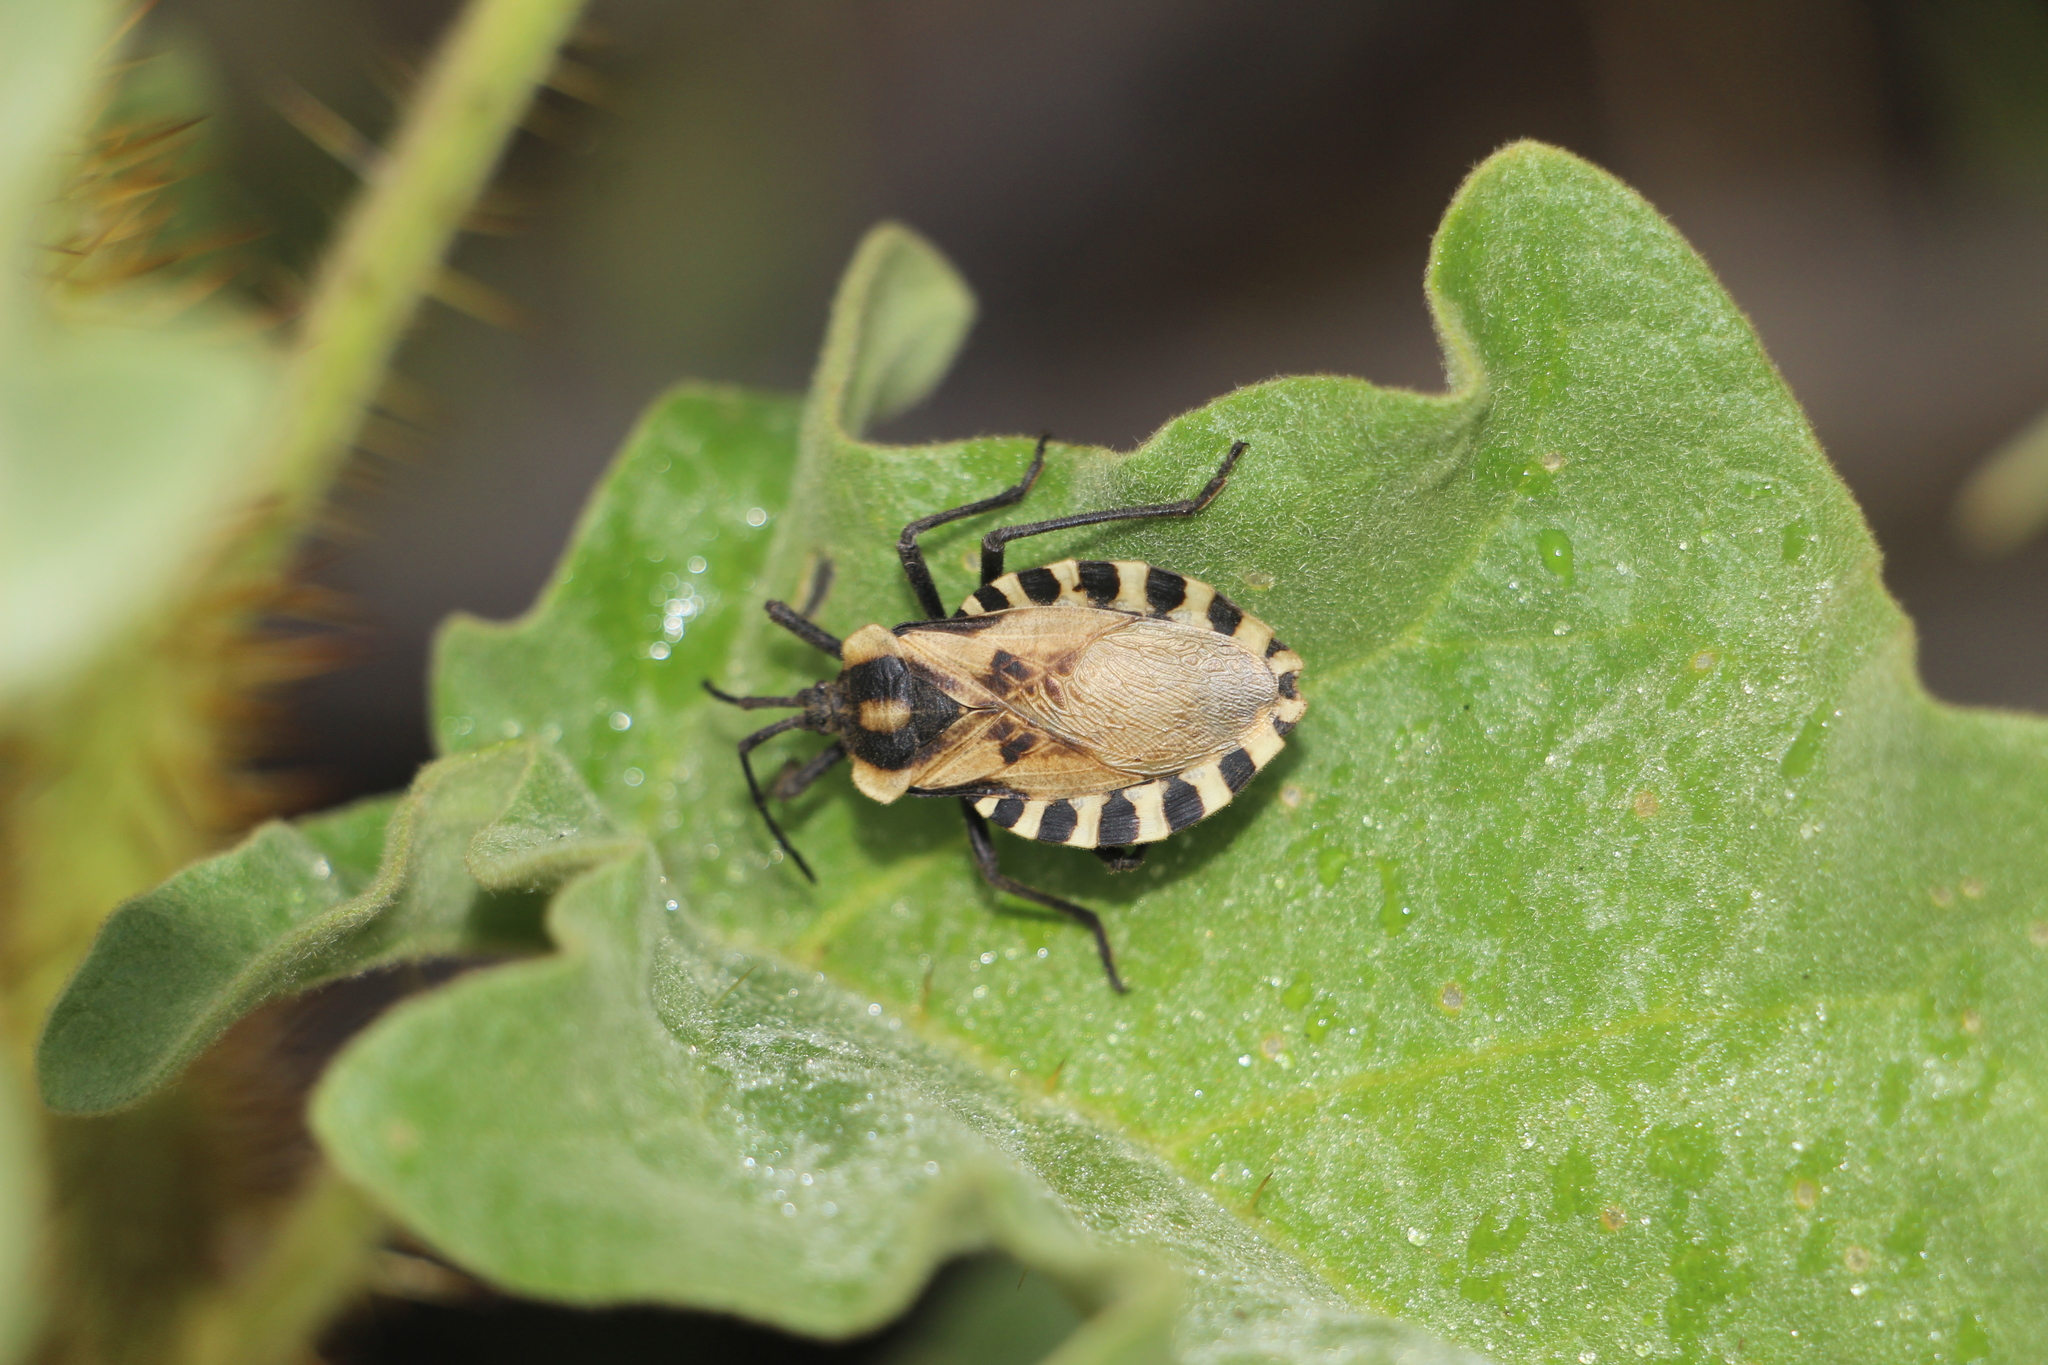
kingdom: Animalia
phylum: Arthropoda
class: Insecta
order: Hemiptera
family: Coreidae
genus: Spartocera
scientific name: Spartocera alternata
